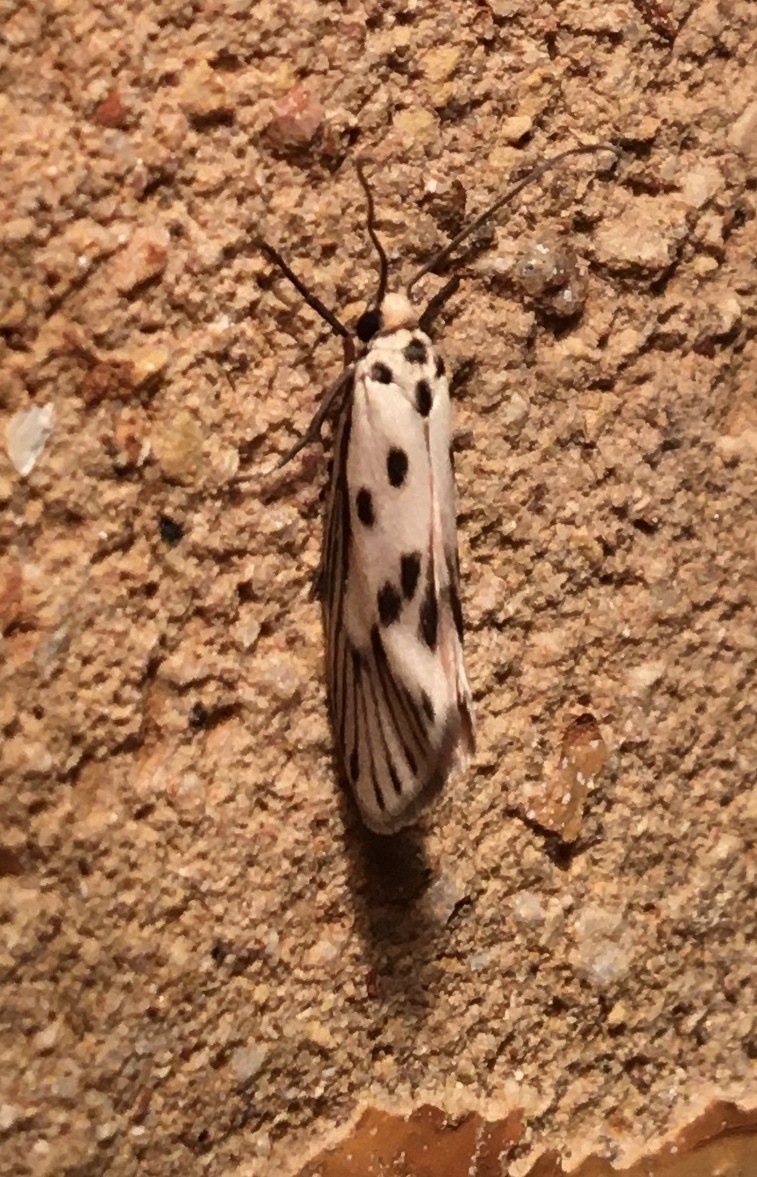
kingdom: Animalia
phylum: Arthropoda
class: Insecta
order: Lepidoptera
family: Lacturidae
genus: Lactura
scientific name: Lactura
